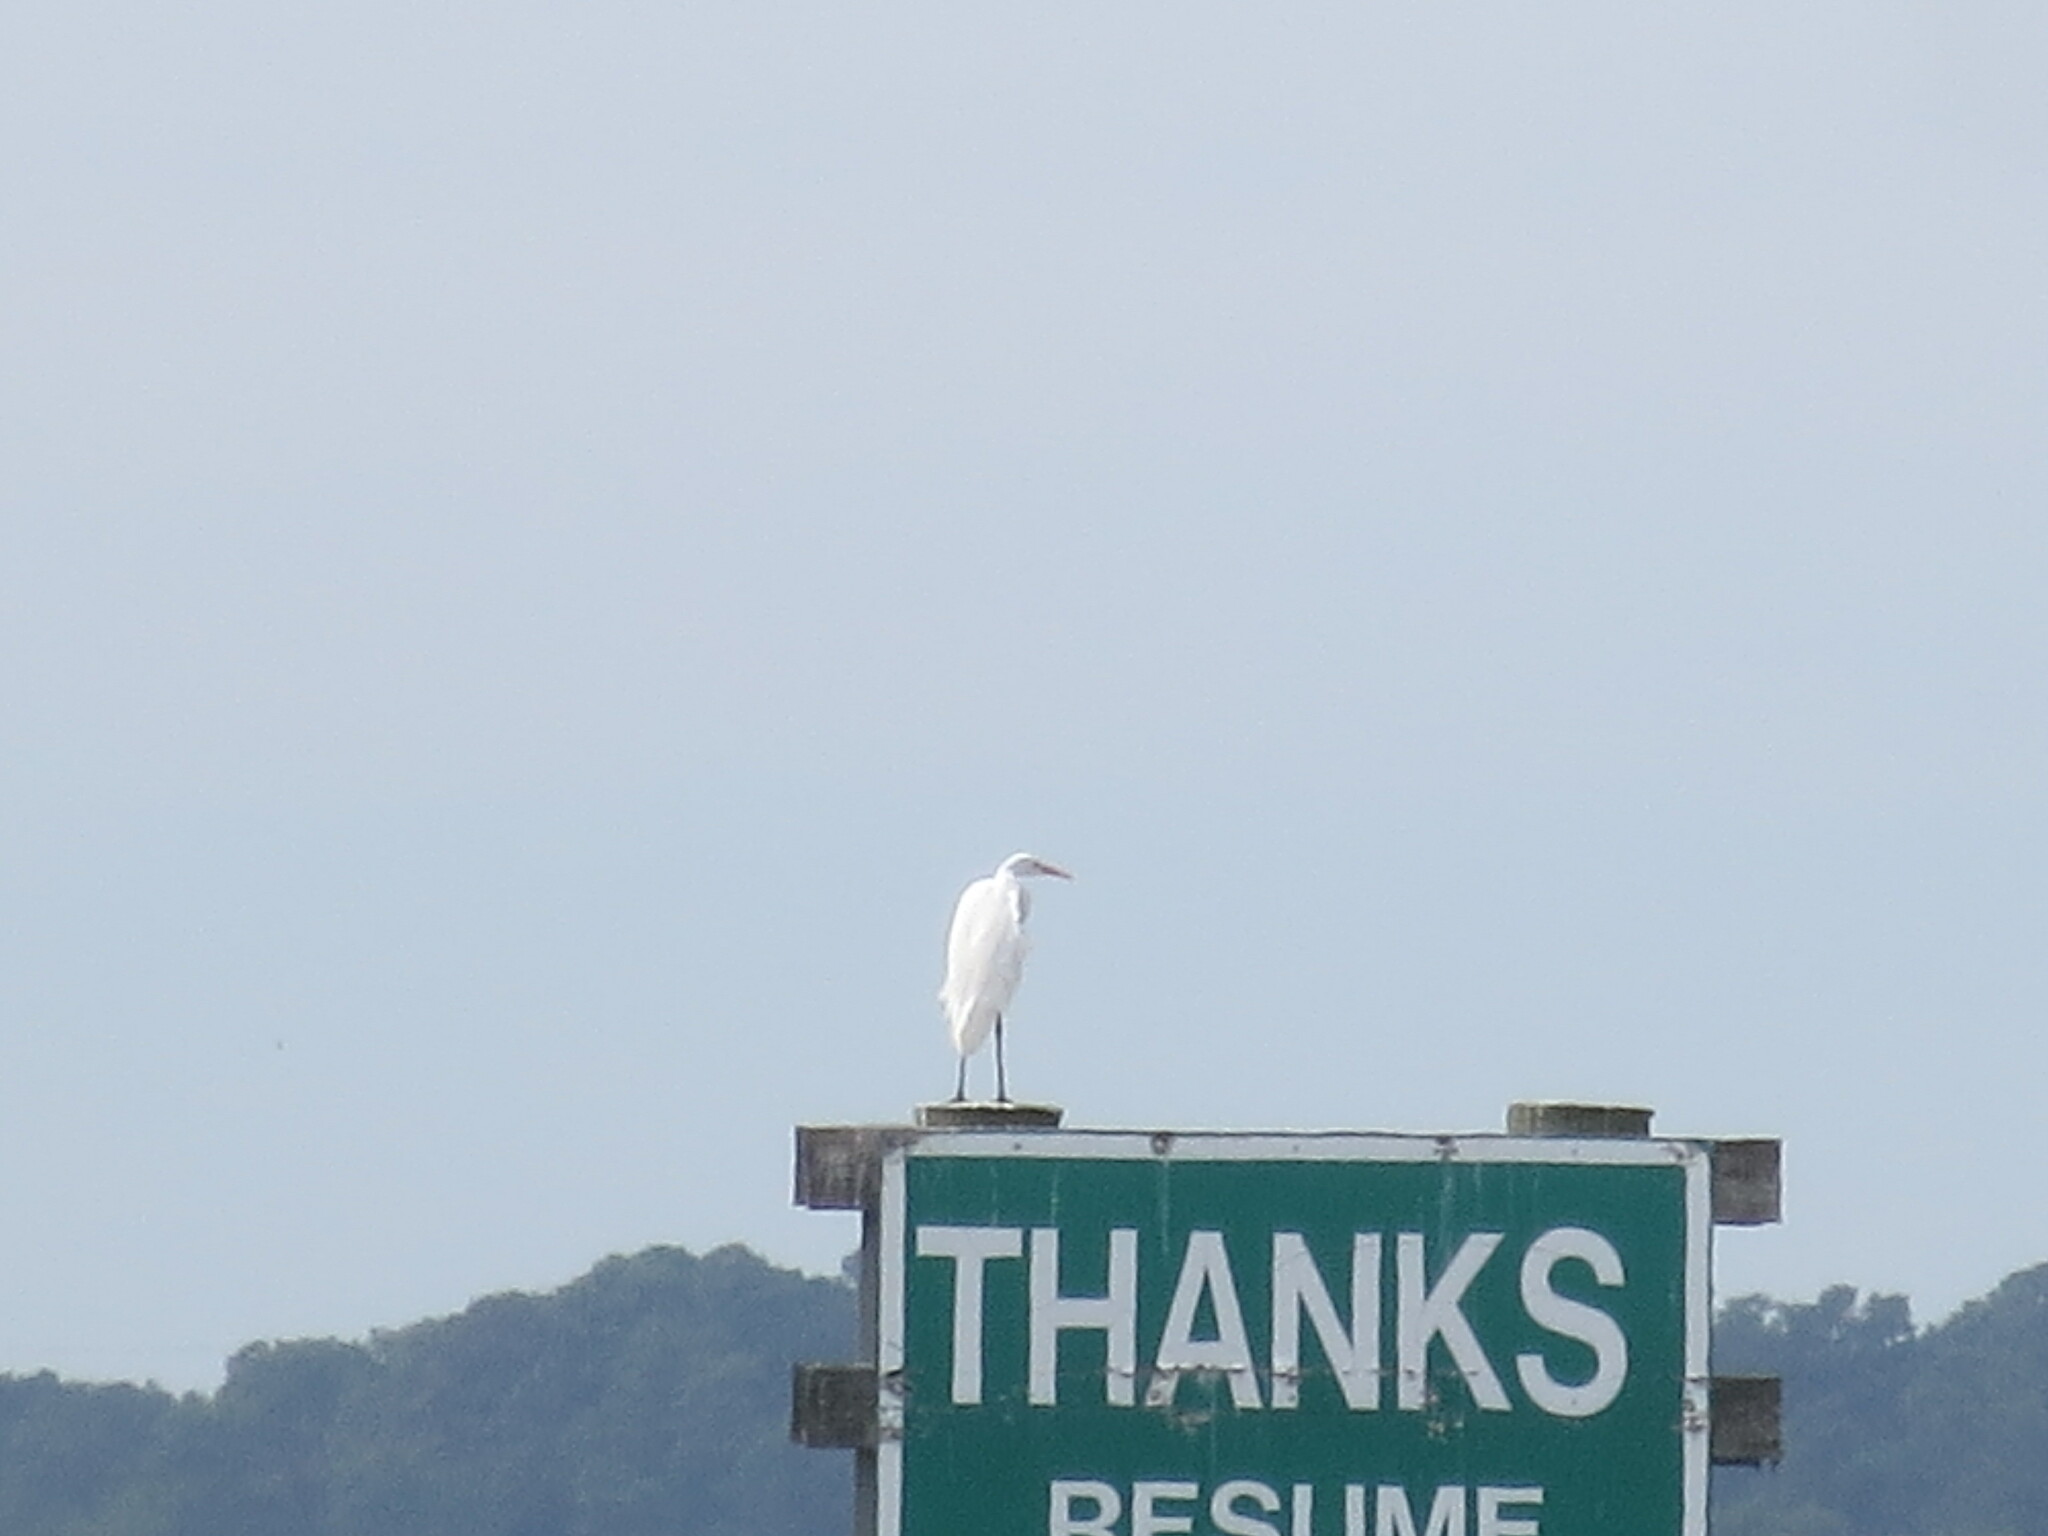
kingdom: Animalia
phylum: Chordata
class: Aves
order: Pelecaniformes
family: Ardeidae
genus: Ardea
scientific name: Ardea alba
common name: Great egret
